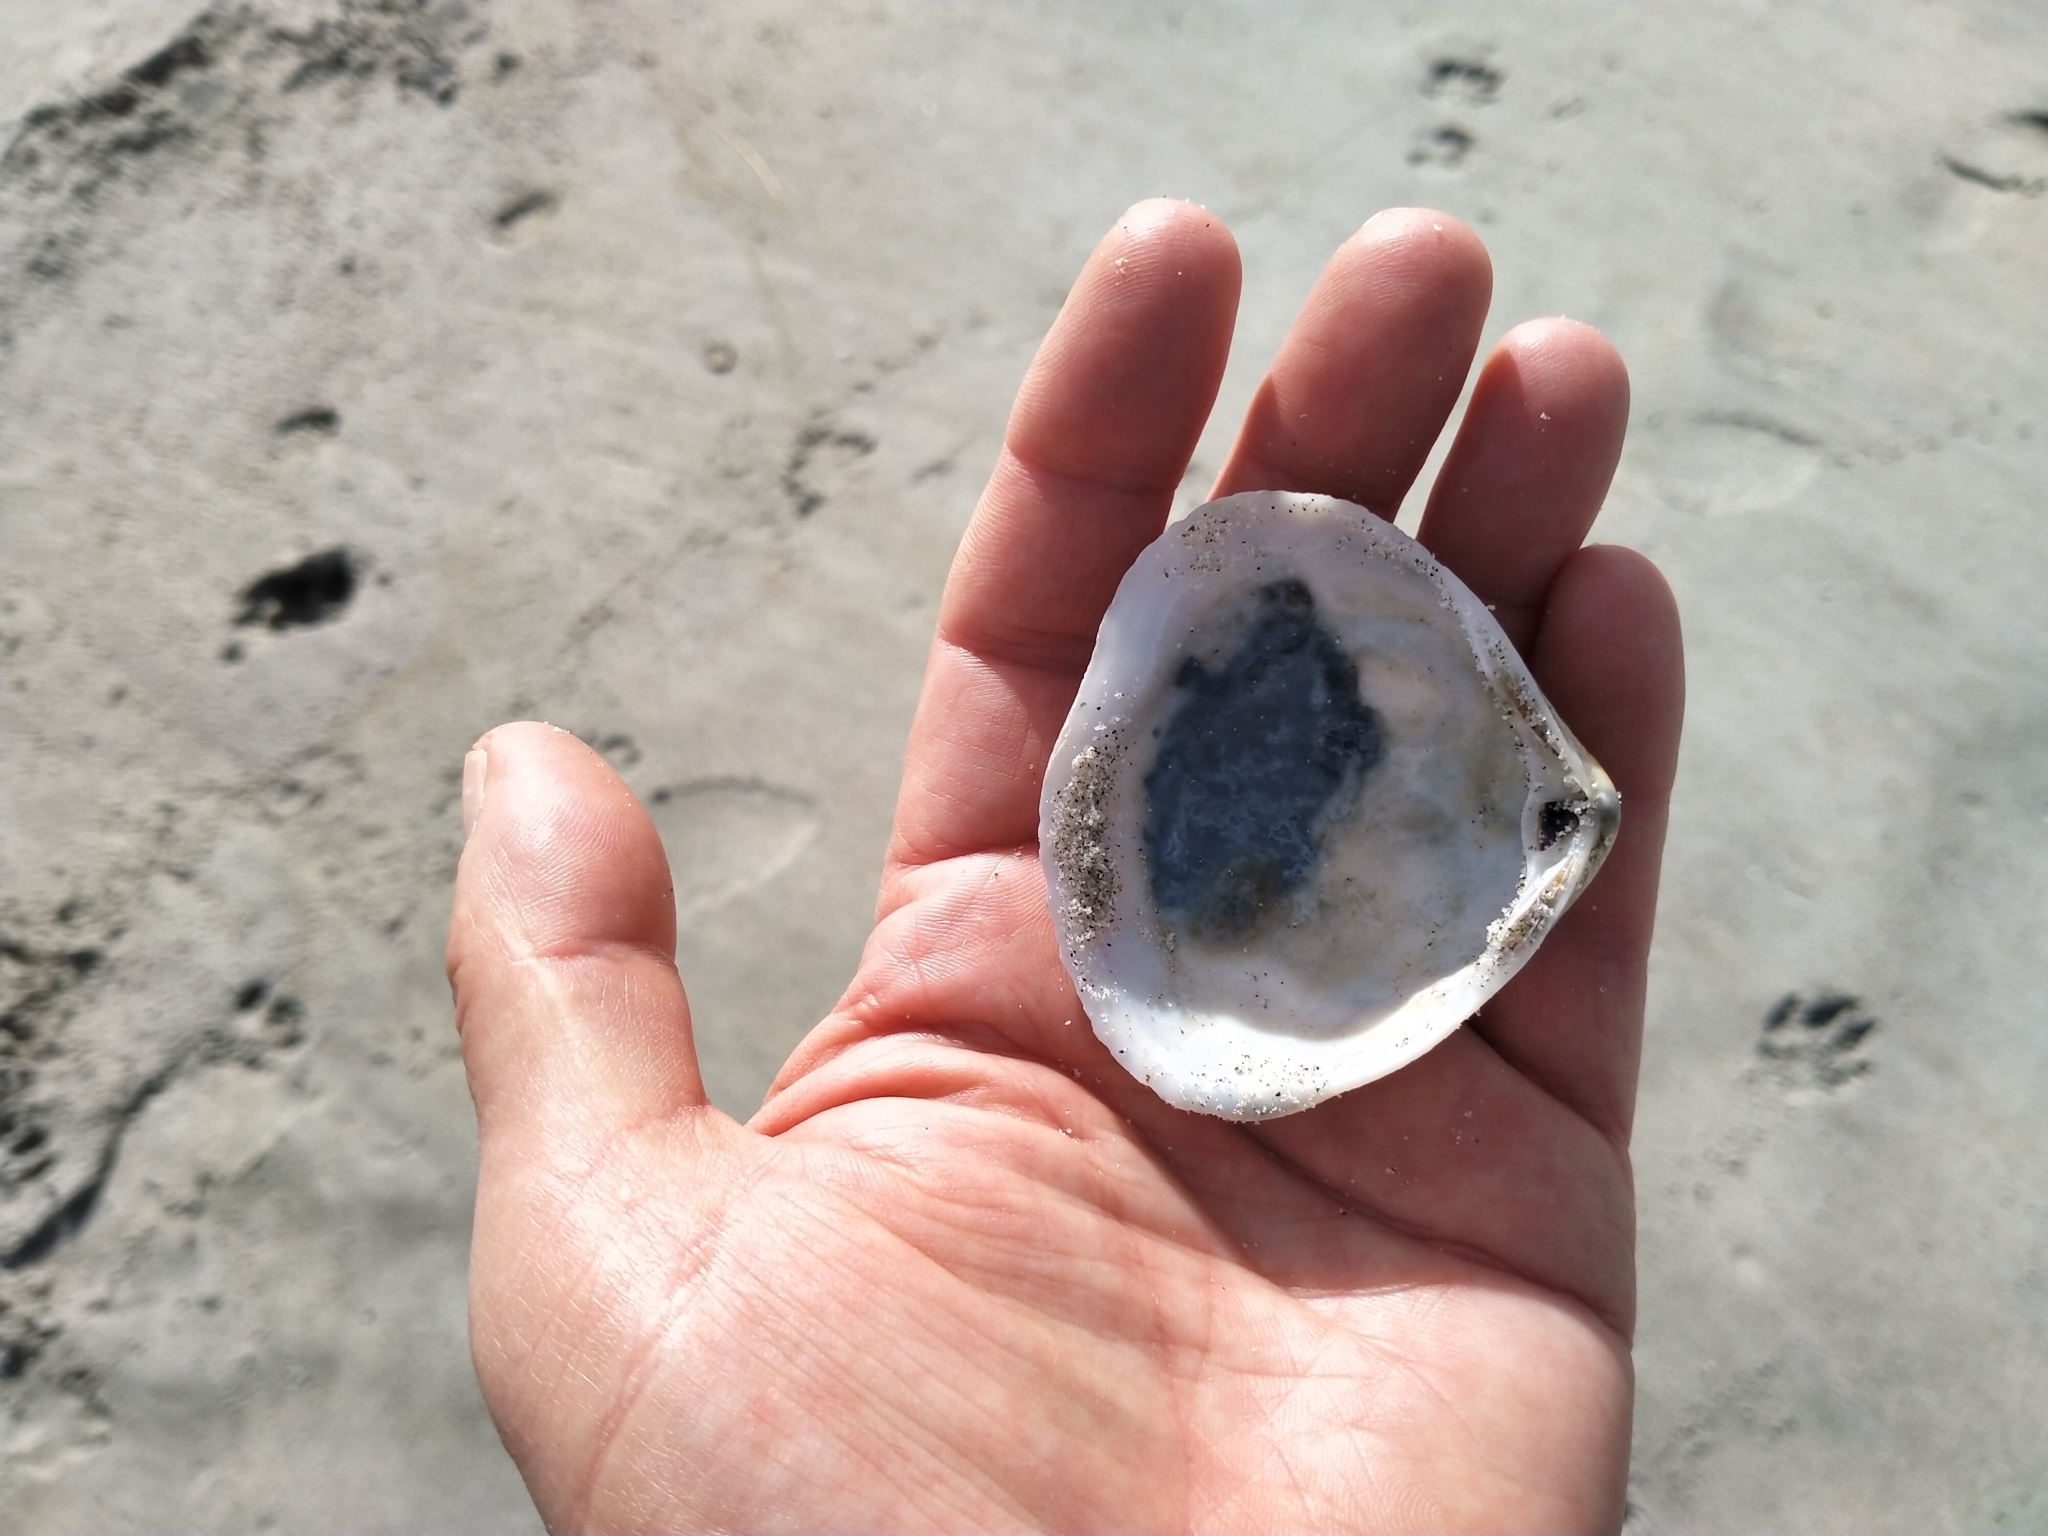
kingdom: Animalia
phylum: Mollusca
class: Bivalvia
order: Venerida
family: Mactridae
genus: Spisula
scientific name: Spisula discors
